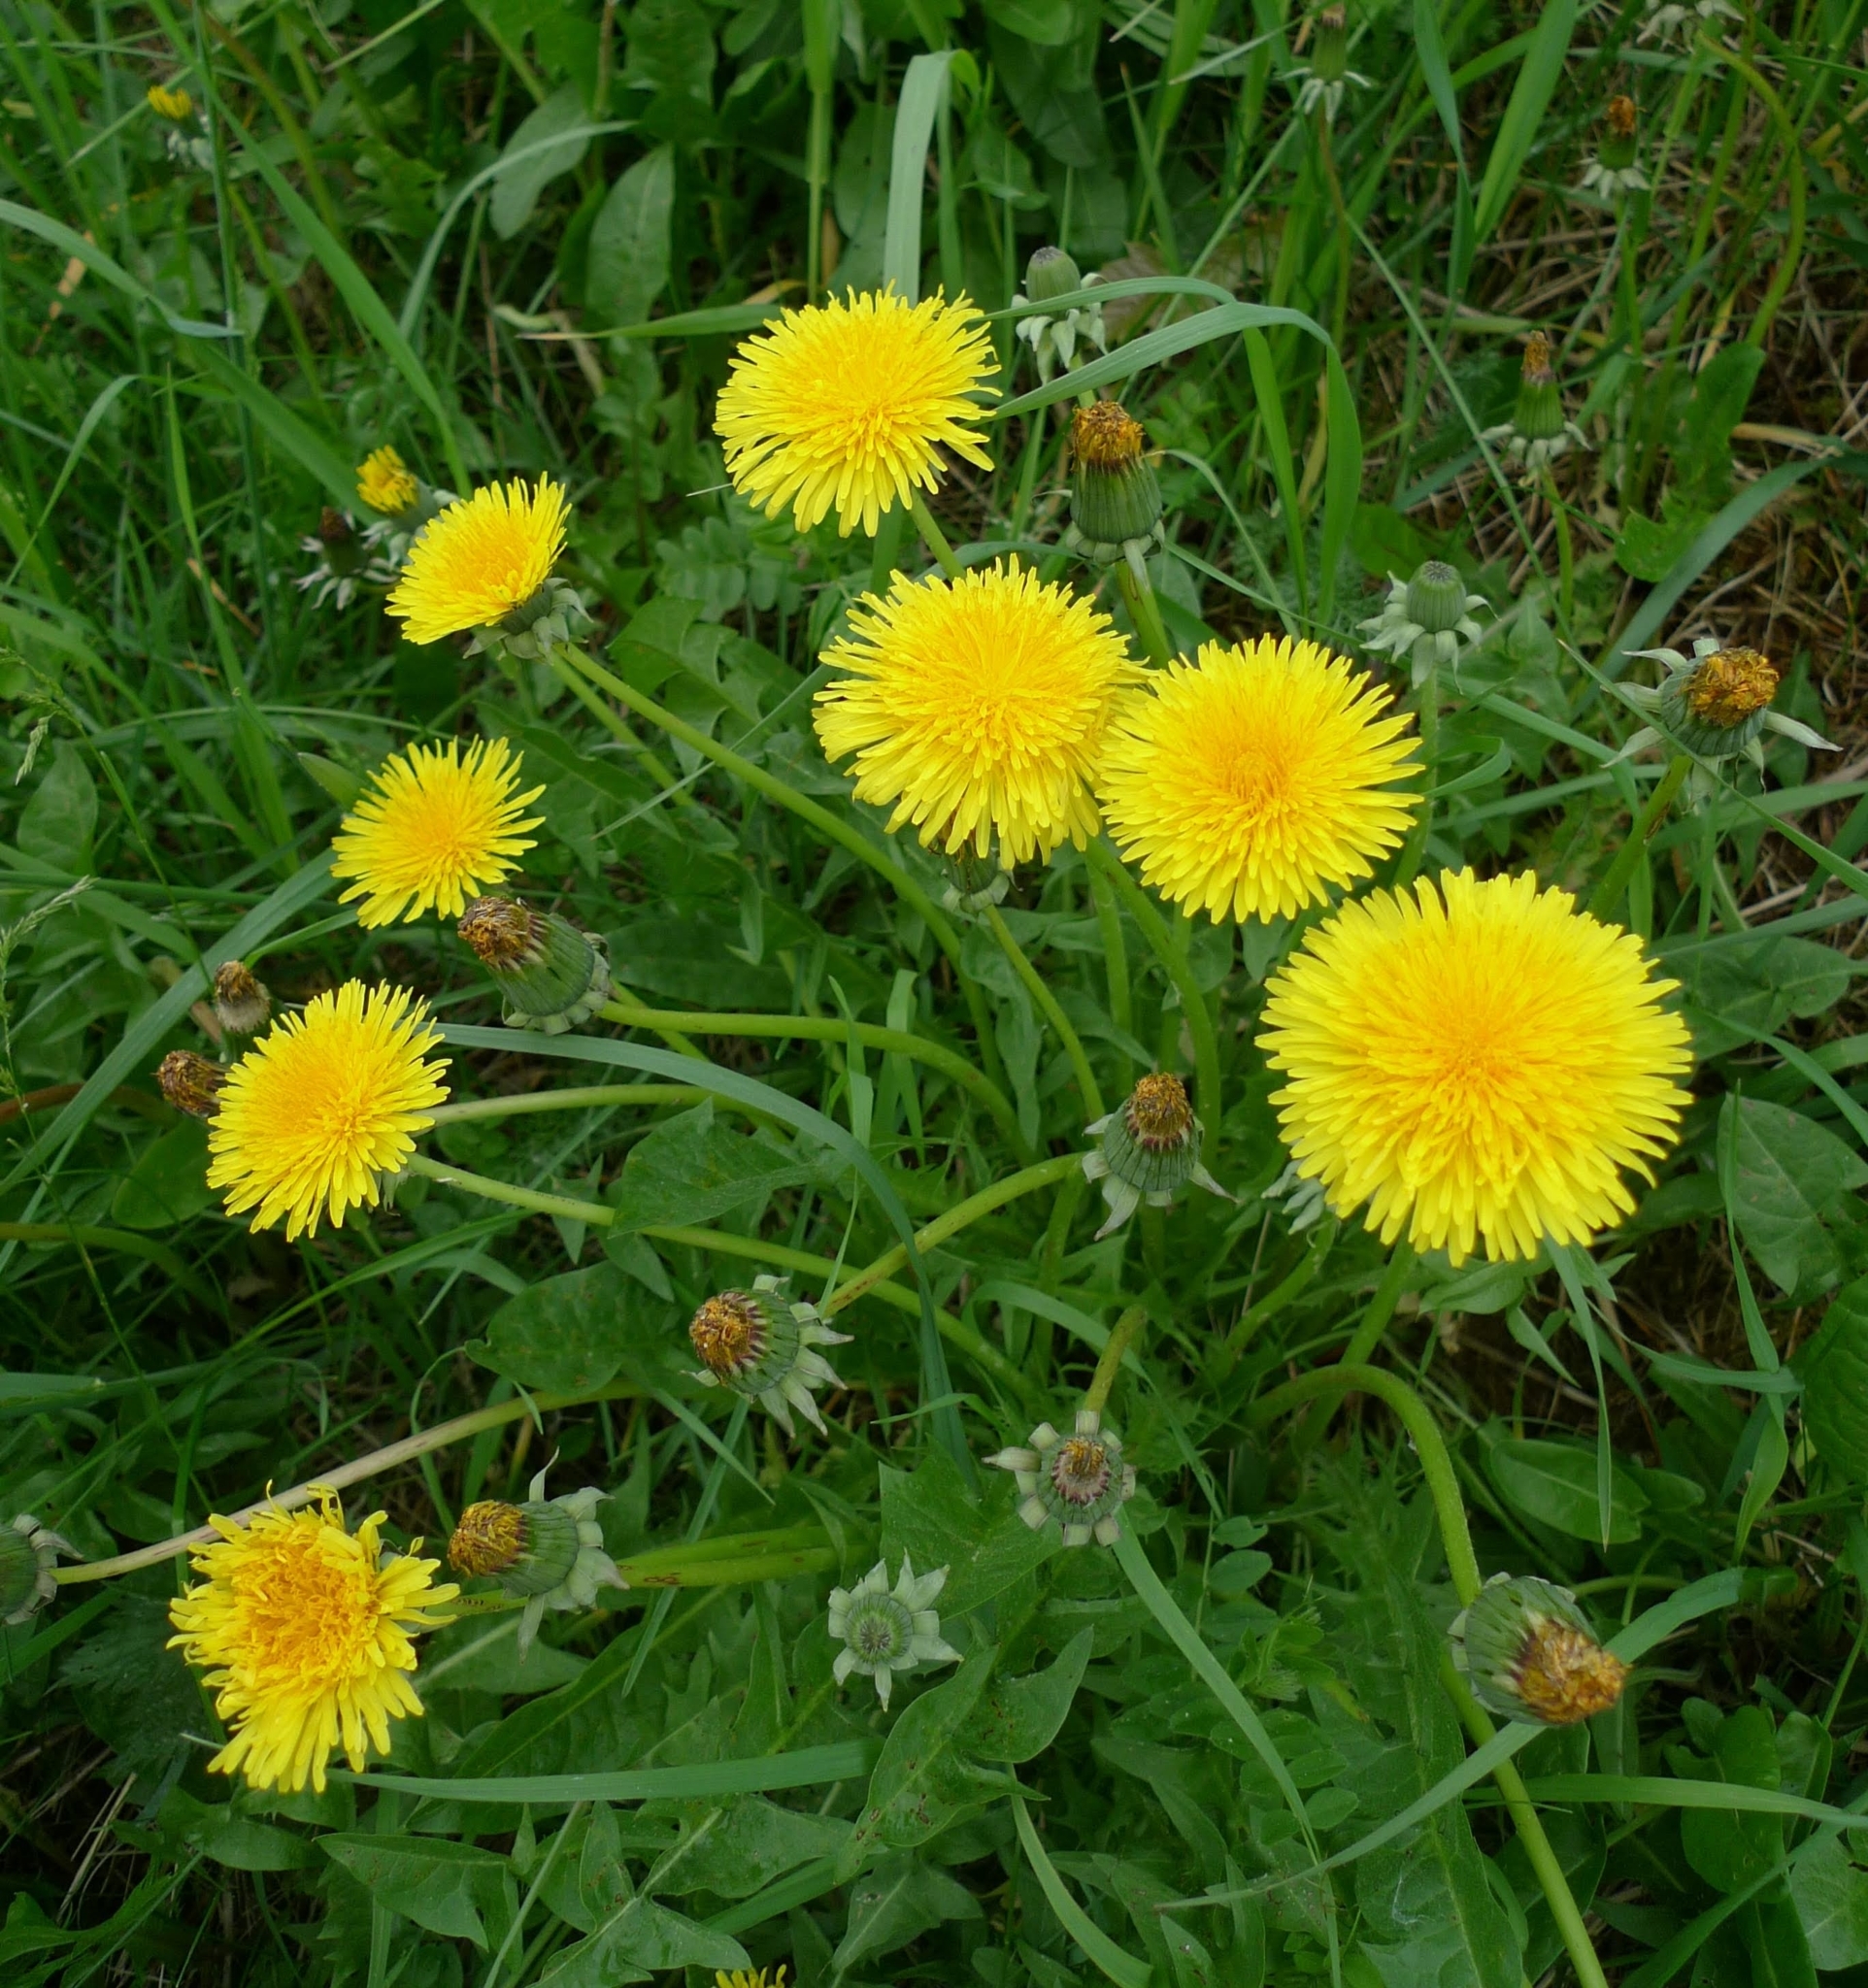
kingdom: Plantae
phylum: Tracheophyta
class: Magnoliopsida
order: Asterales
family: Asteraceae
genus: Taraxacum
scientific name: Taraxacum
